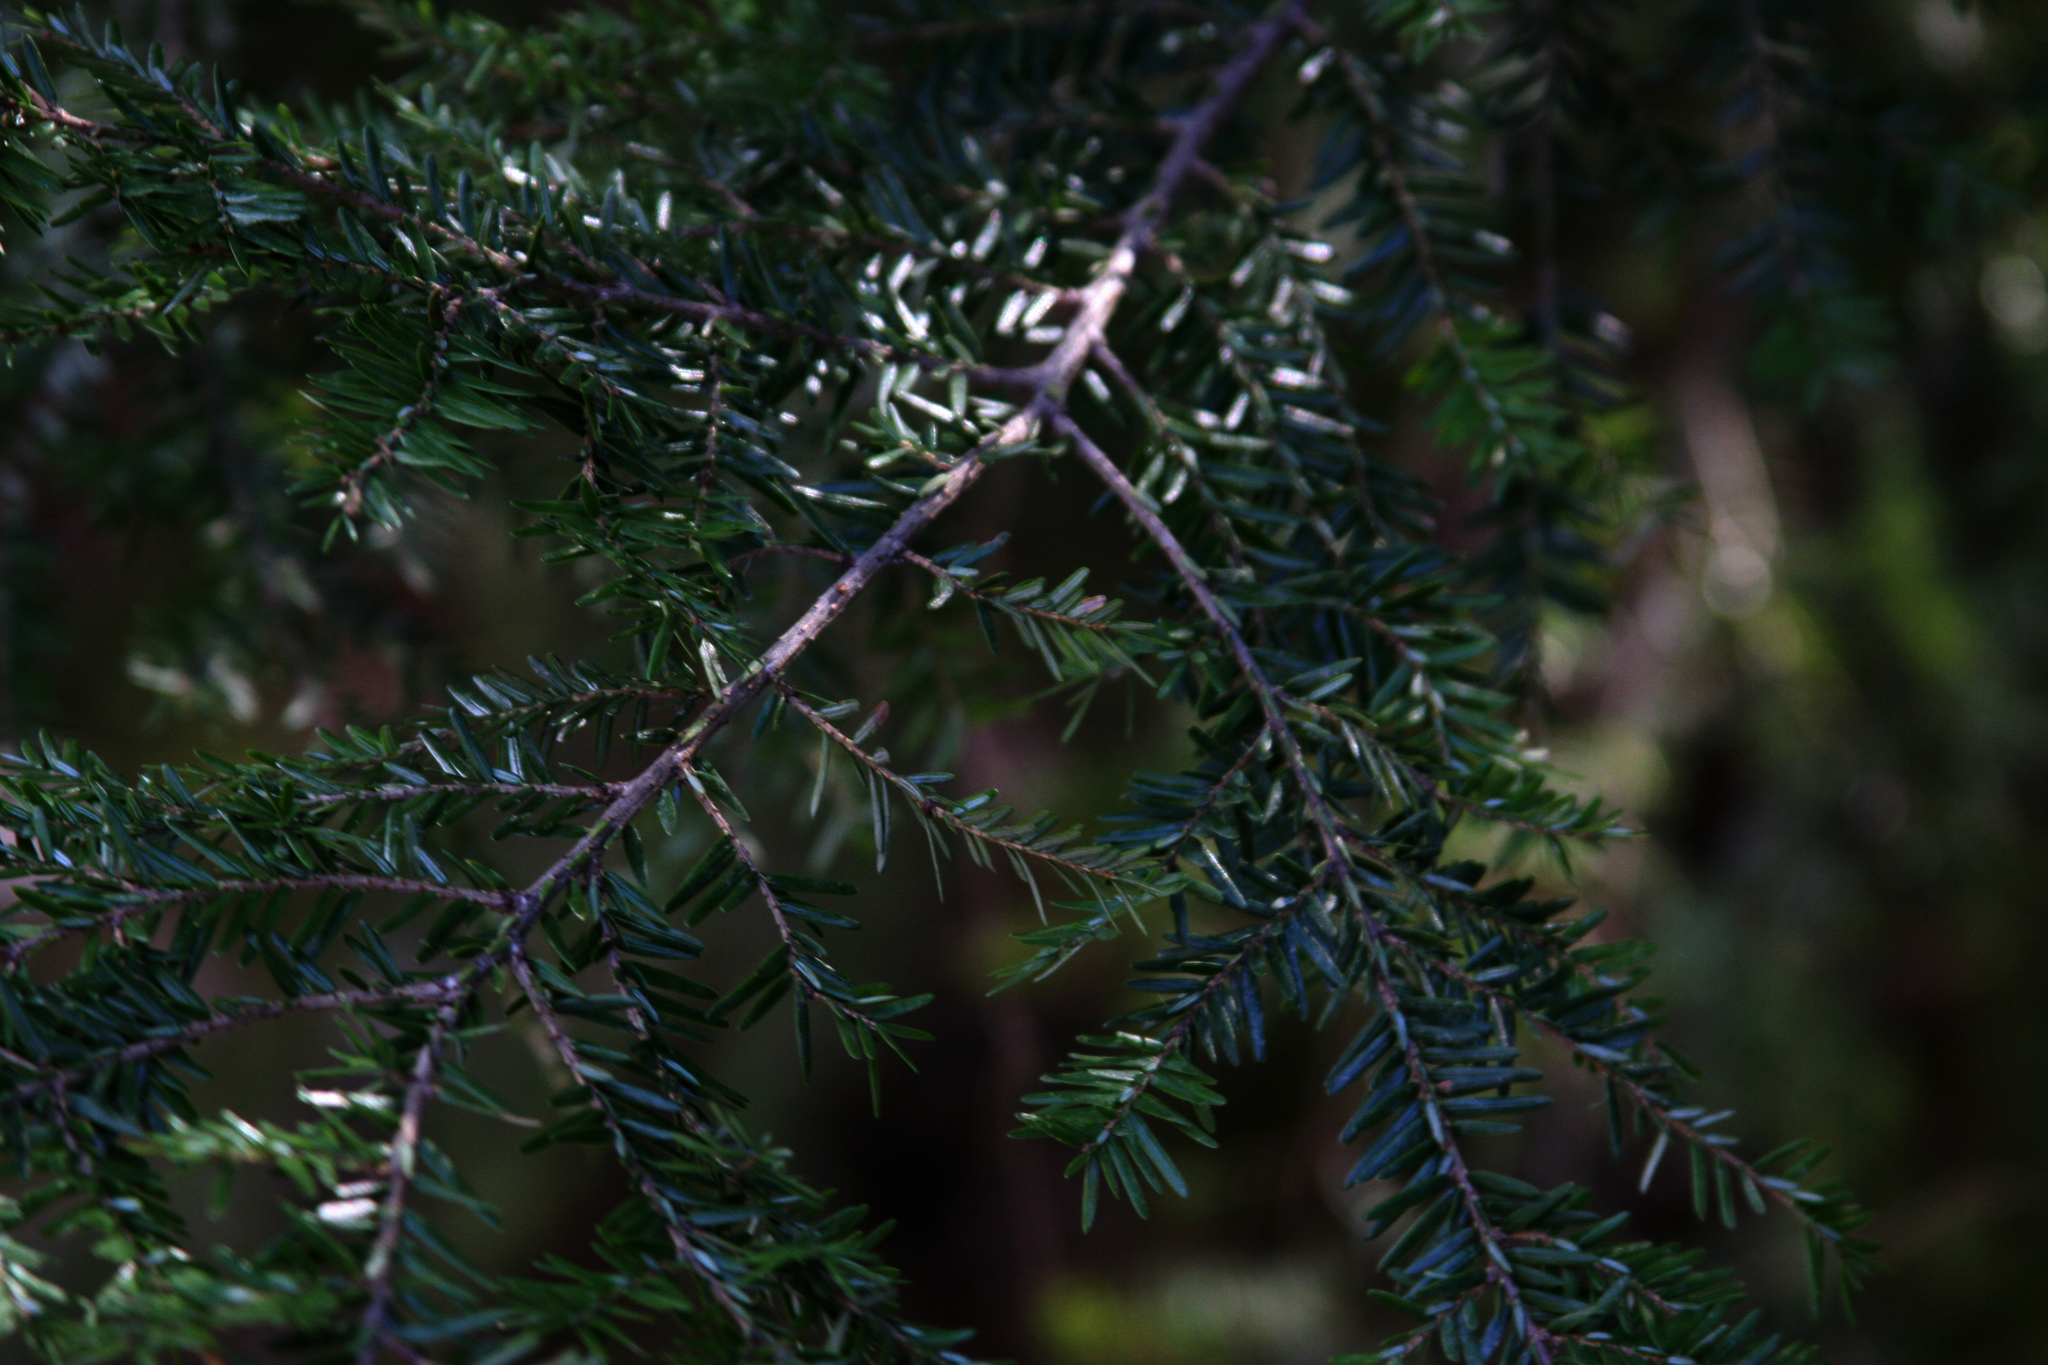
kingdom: Plantae
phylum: Tracheophyta
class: Pinopsida
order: Pinales
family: Pinaceae
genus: Tsuga
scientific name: Tsuga canadensis
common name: Eastern hemlock
